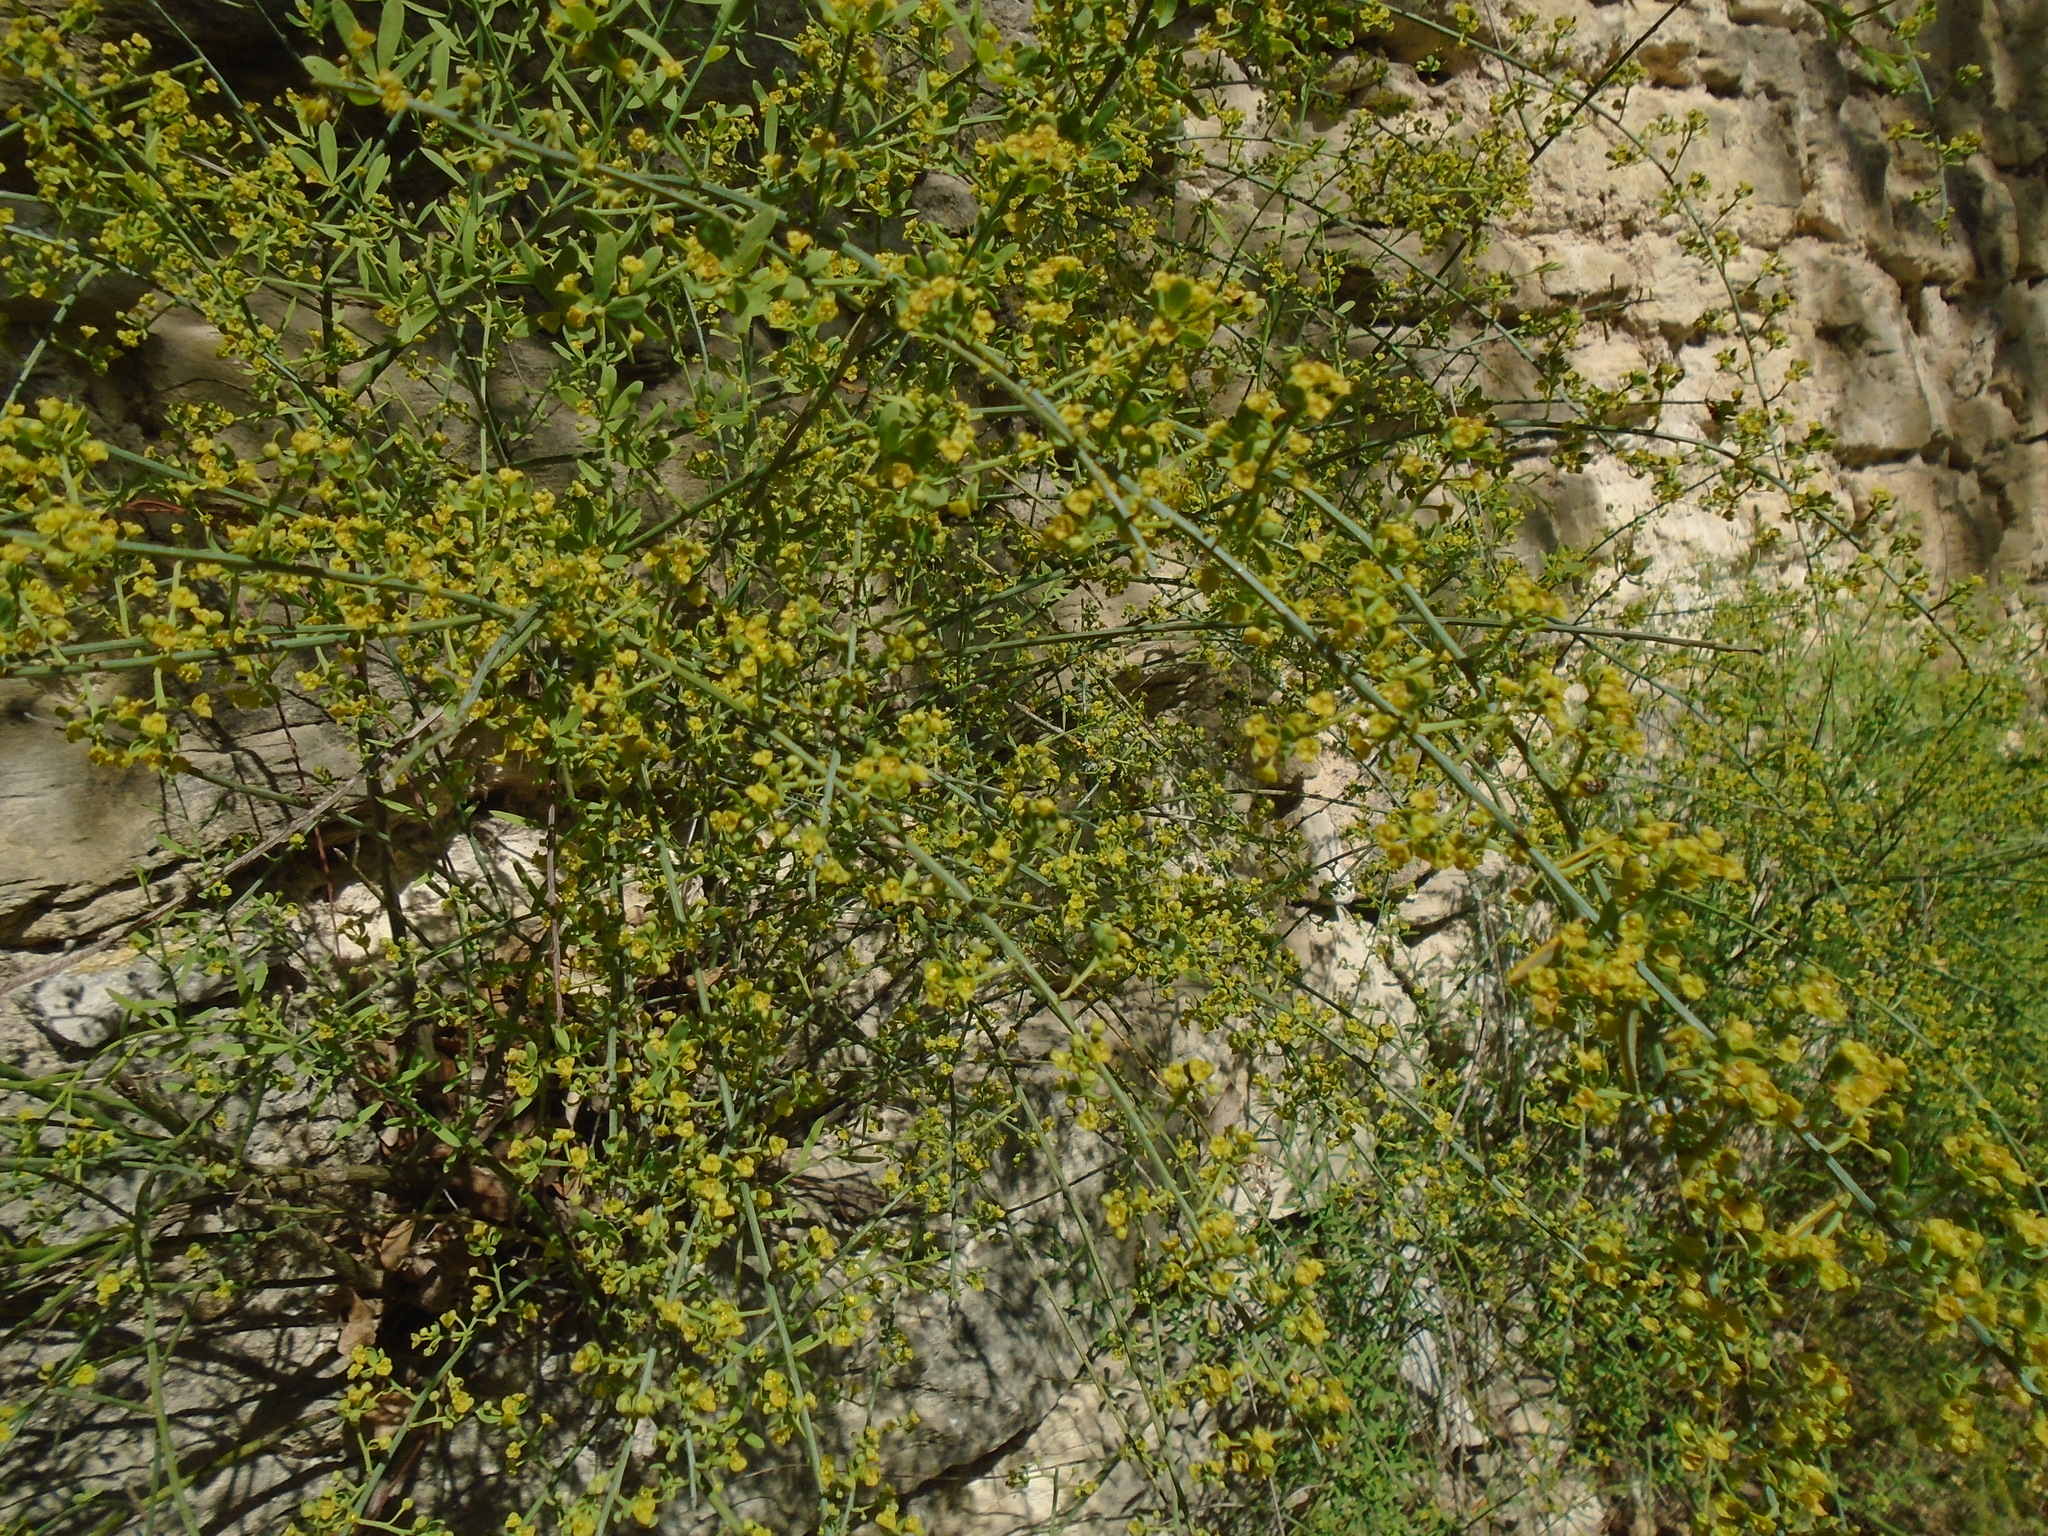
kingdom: Plantae
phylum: Tracheophyta
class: Magnoliopsida
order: Santalales
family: Santalaceae
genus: Osyris
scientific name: Osyris alba
